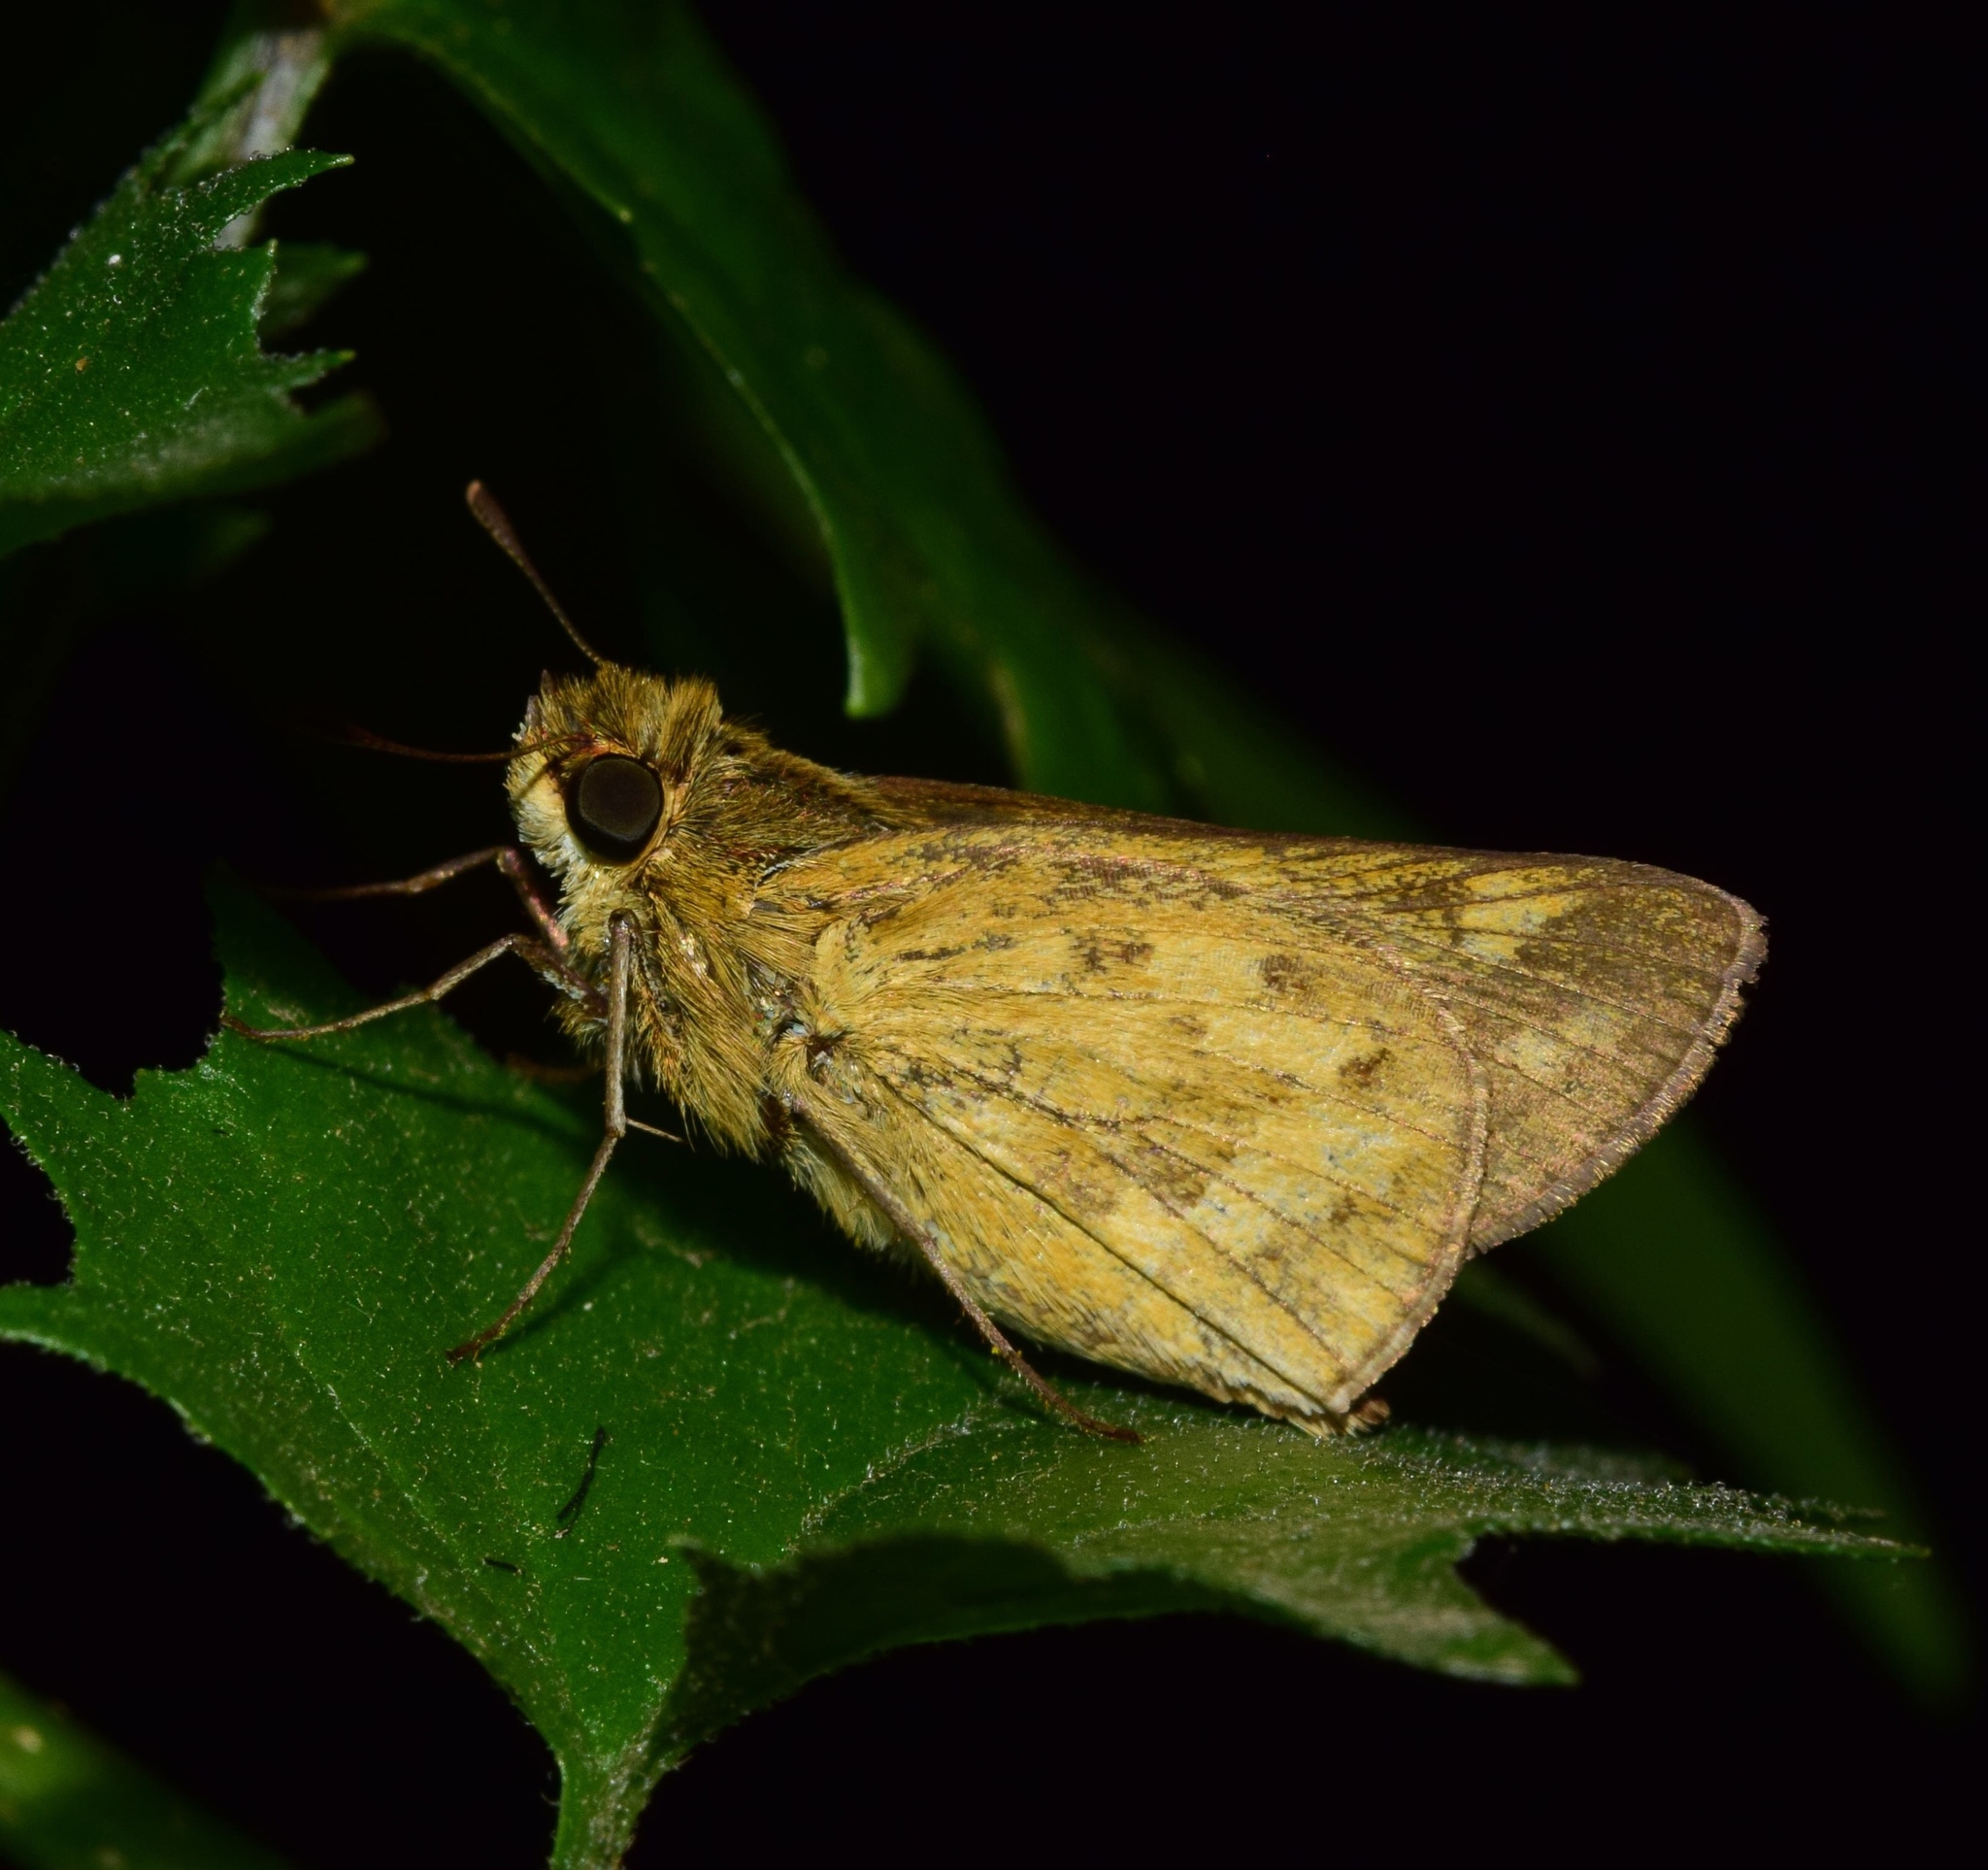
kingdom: Animalia
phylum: Arthropoda
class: Insecta
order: Hymenoptera
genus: Afrogenes
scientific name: Afrogenes
